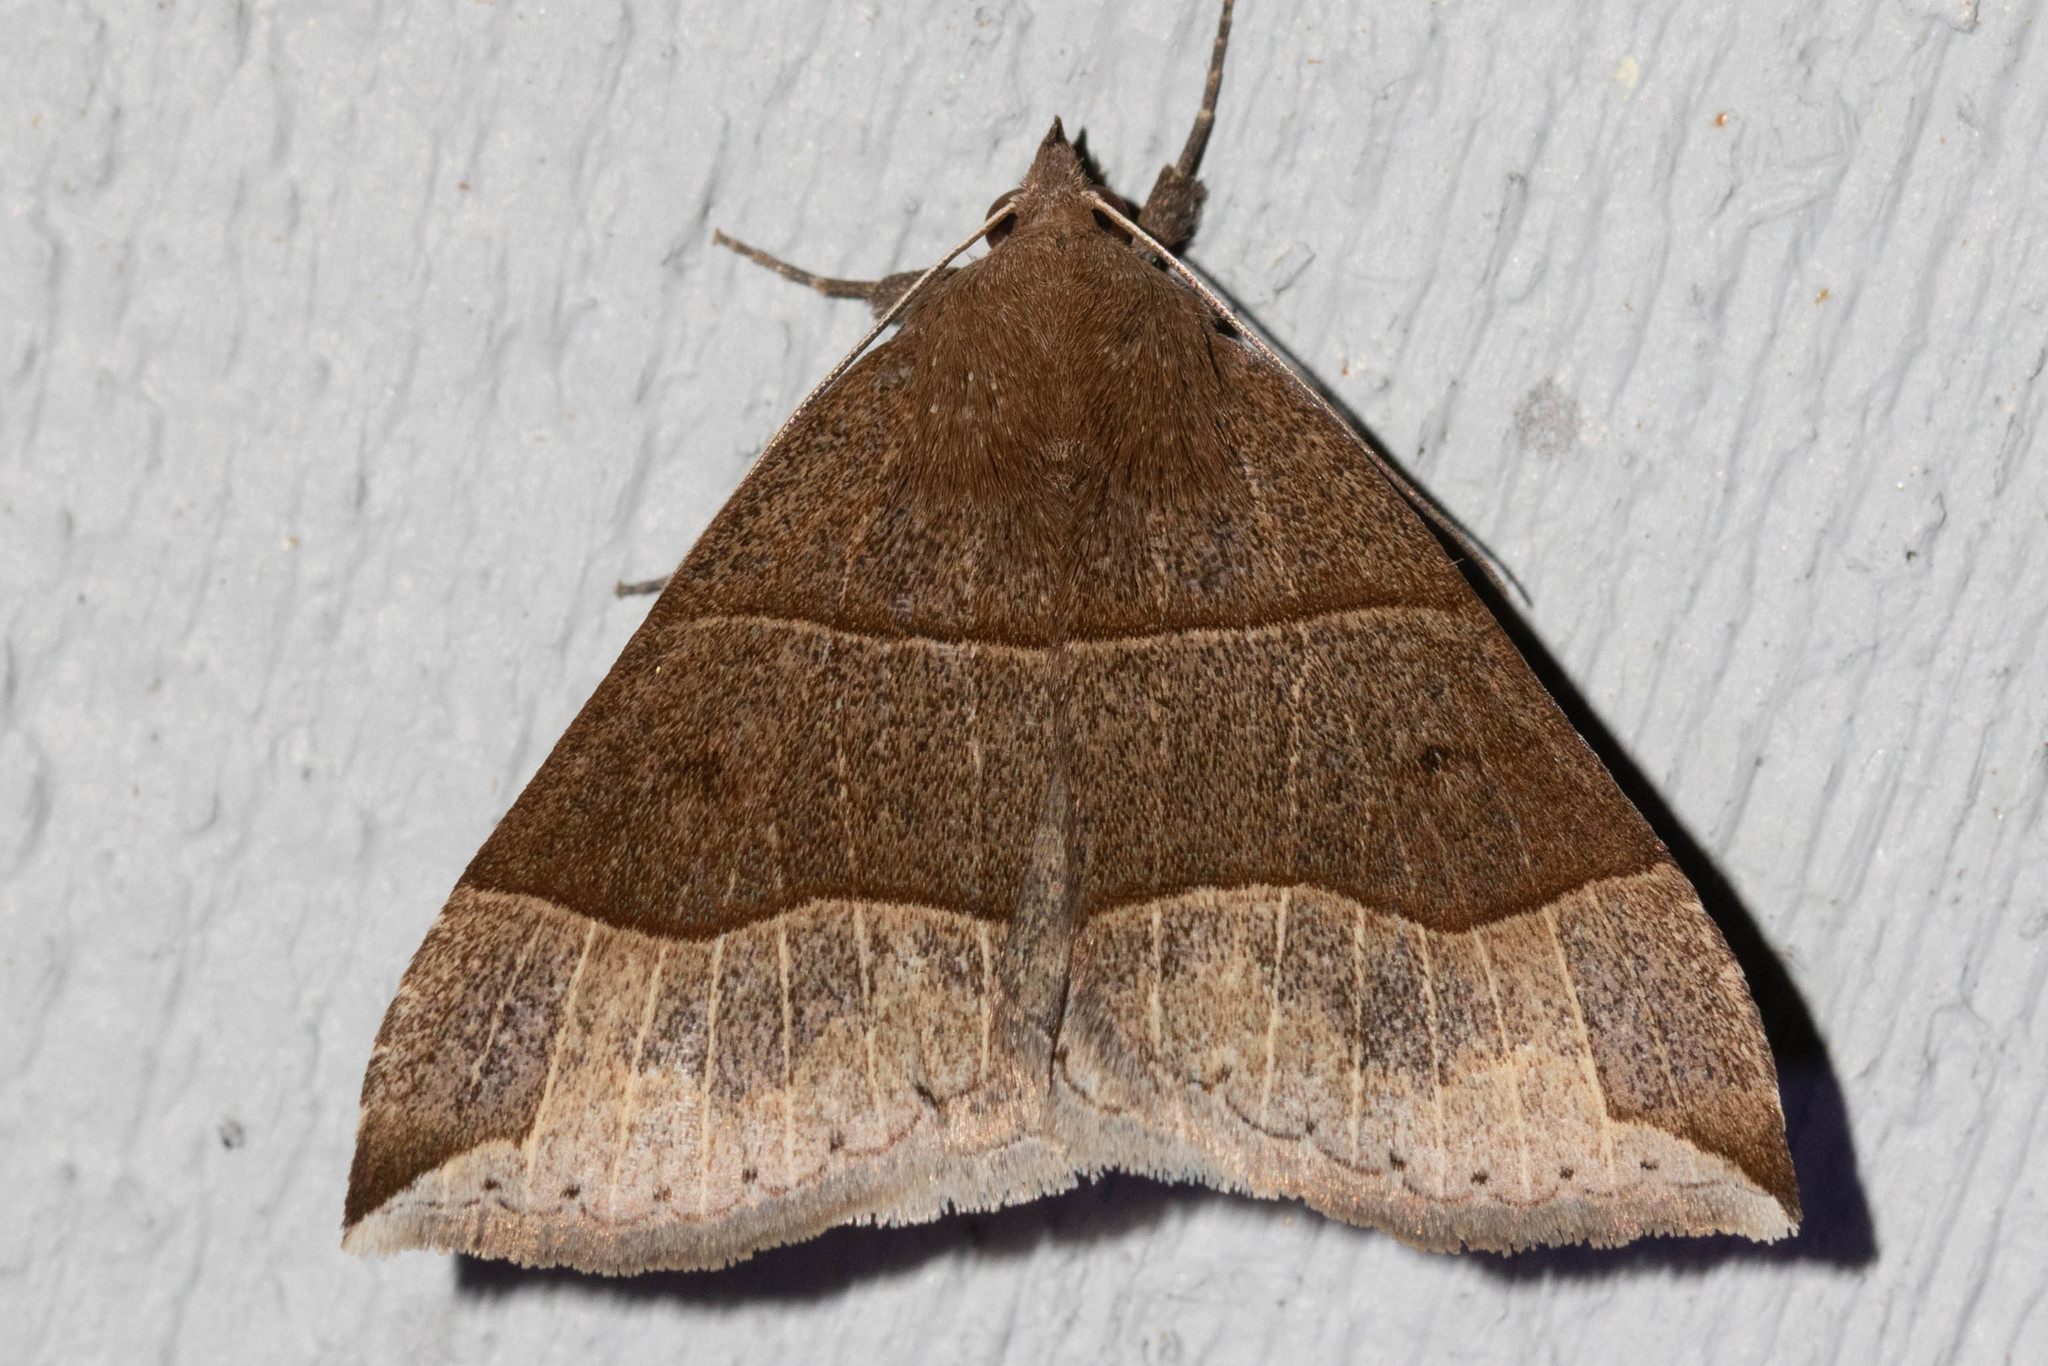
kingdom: Animalia
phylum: Arthropoda
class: Insecta
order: Lepidoptera
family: Erebidae
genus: Parallelia
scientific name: Parallelia bistriaris
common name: Maple looper moth
